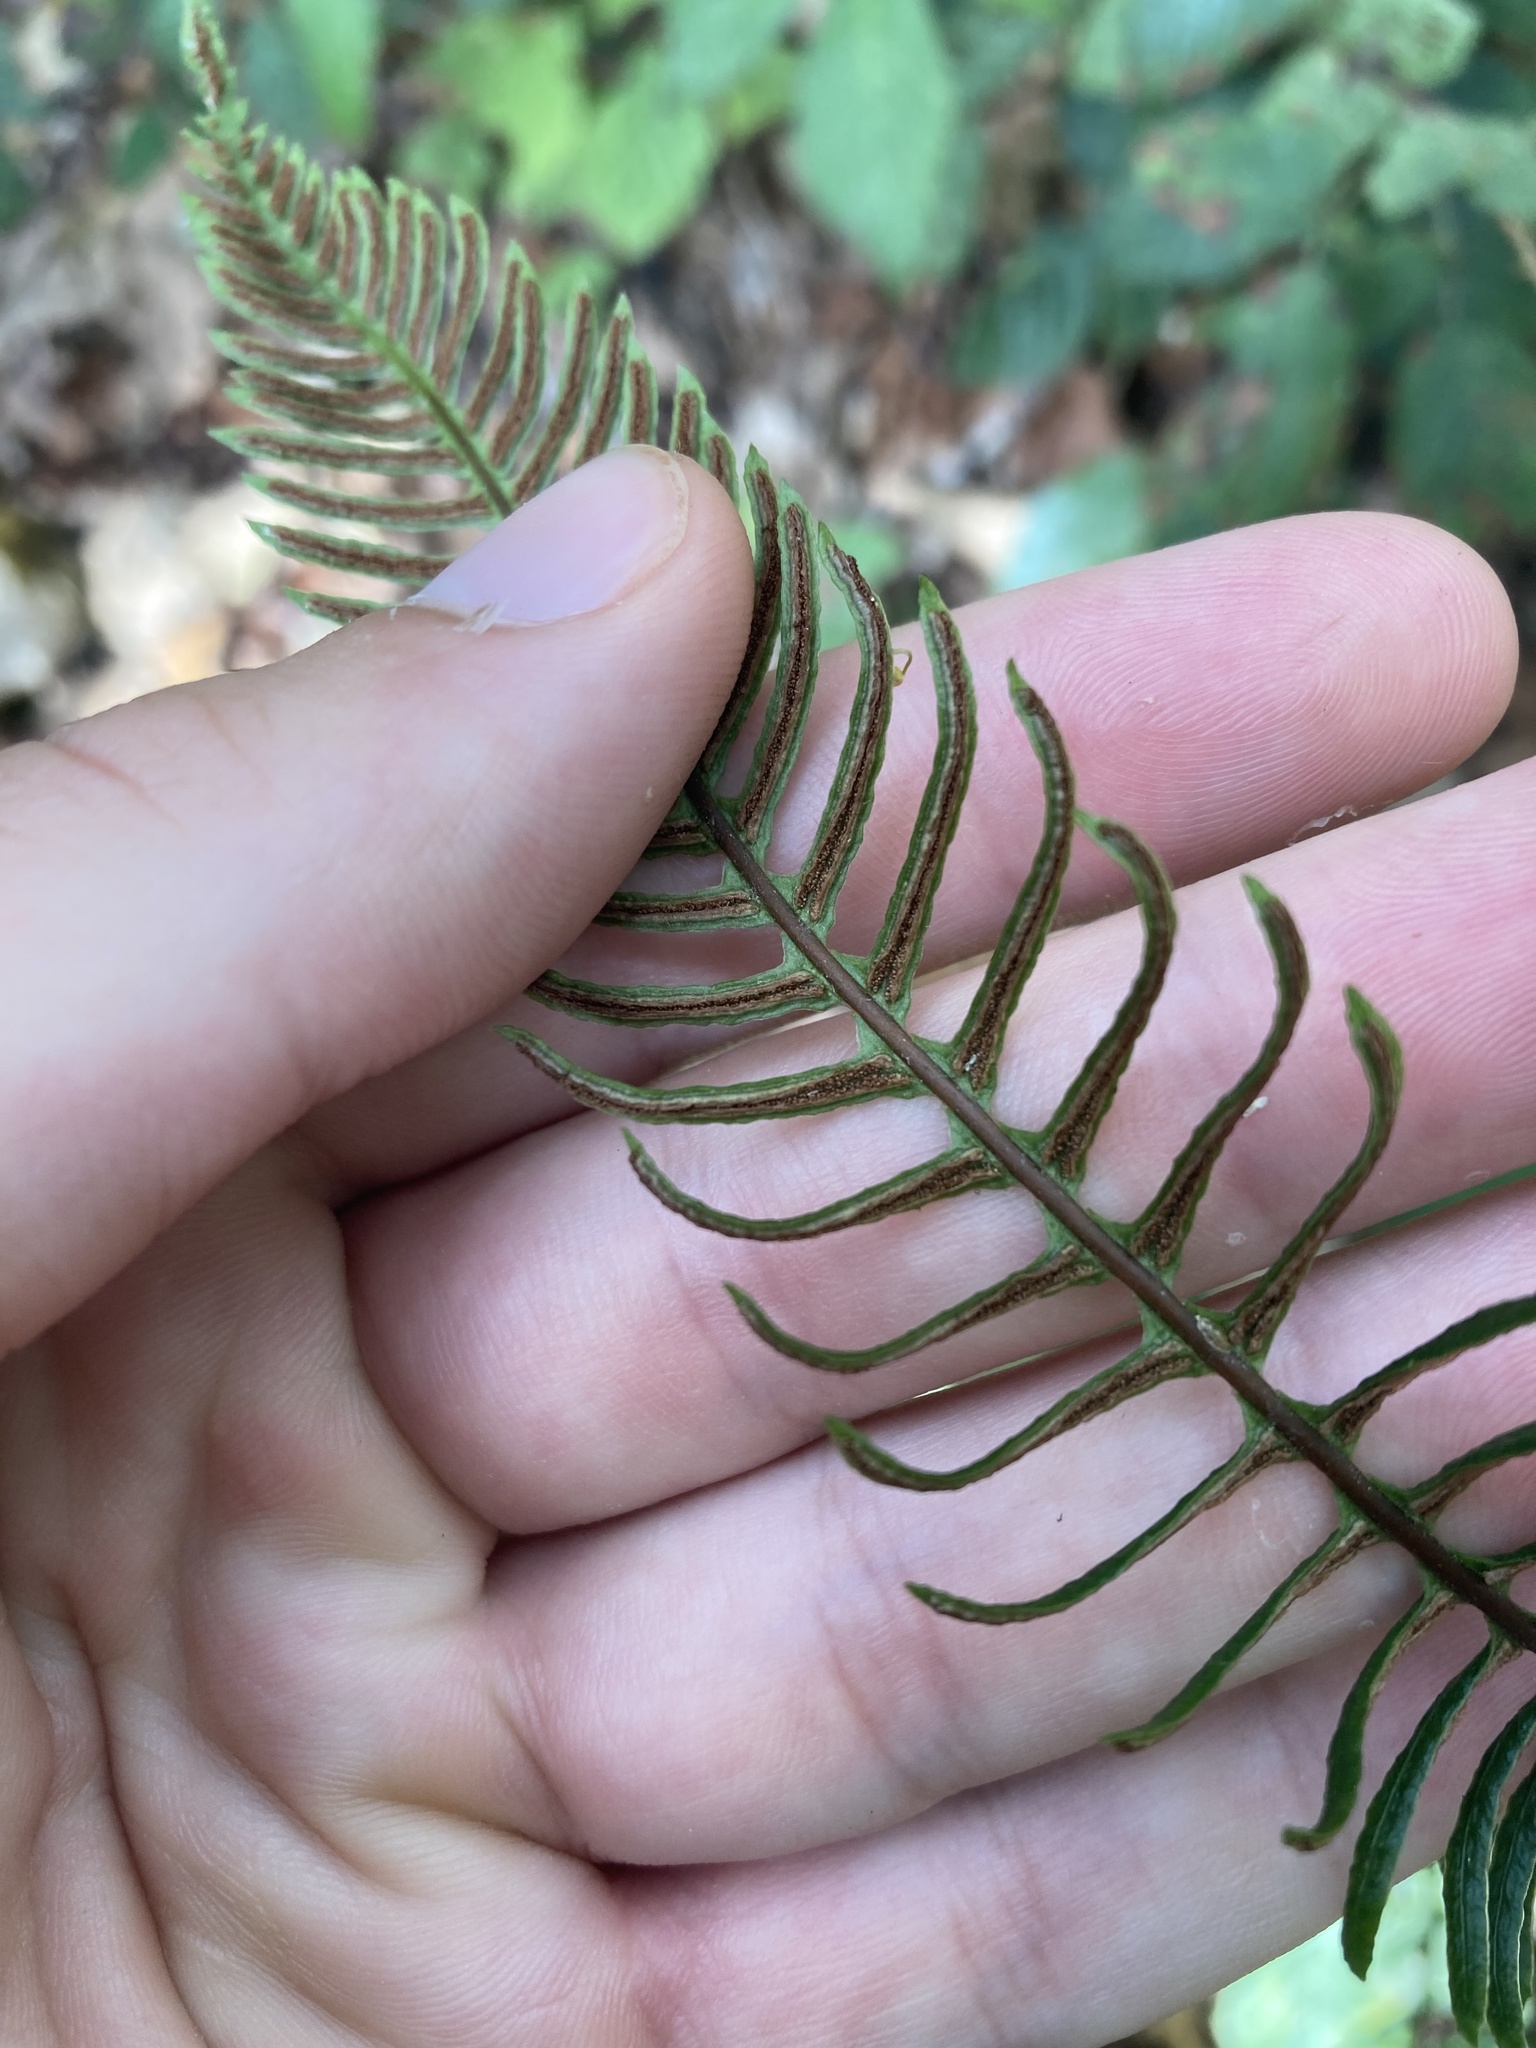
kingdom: Plantae
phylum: Tracheophyta
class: Polypodiopsida
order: Polypodiales
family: Blechnaceae
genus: Struthiopteris
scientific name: Struthiopteris spicant
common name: Deer fern
